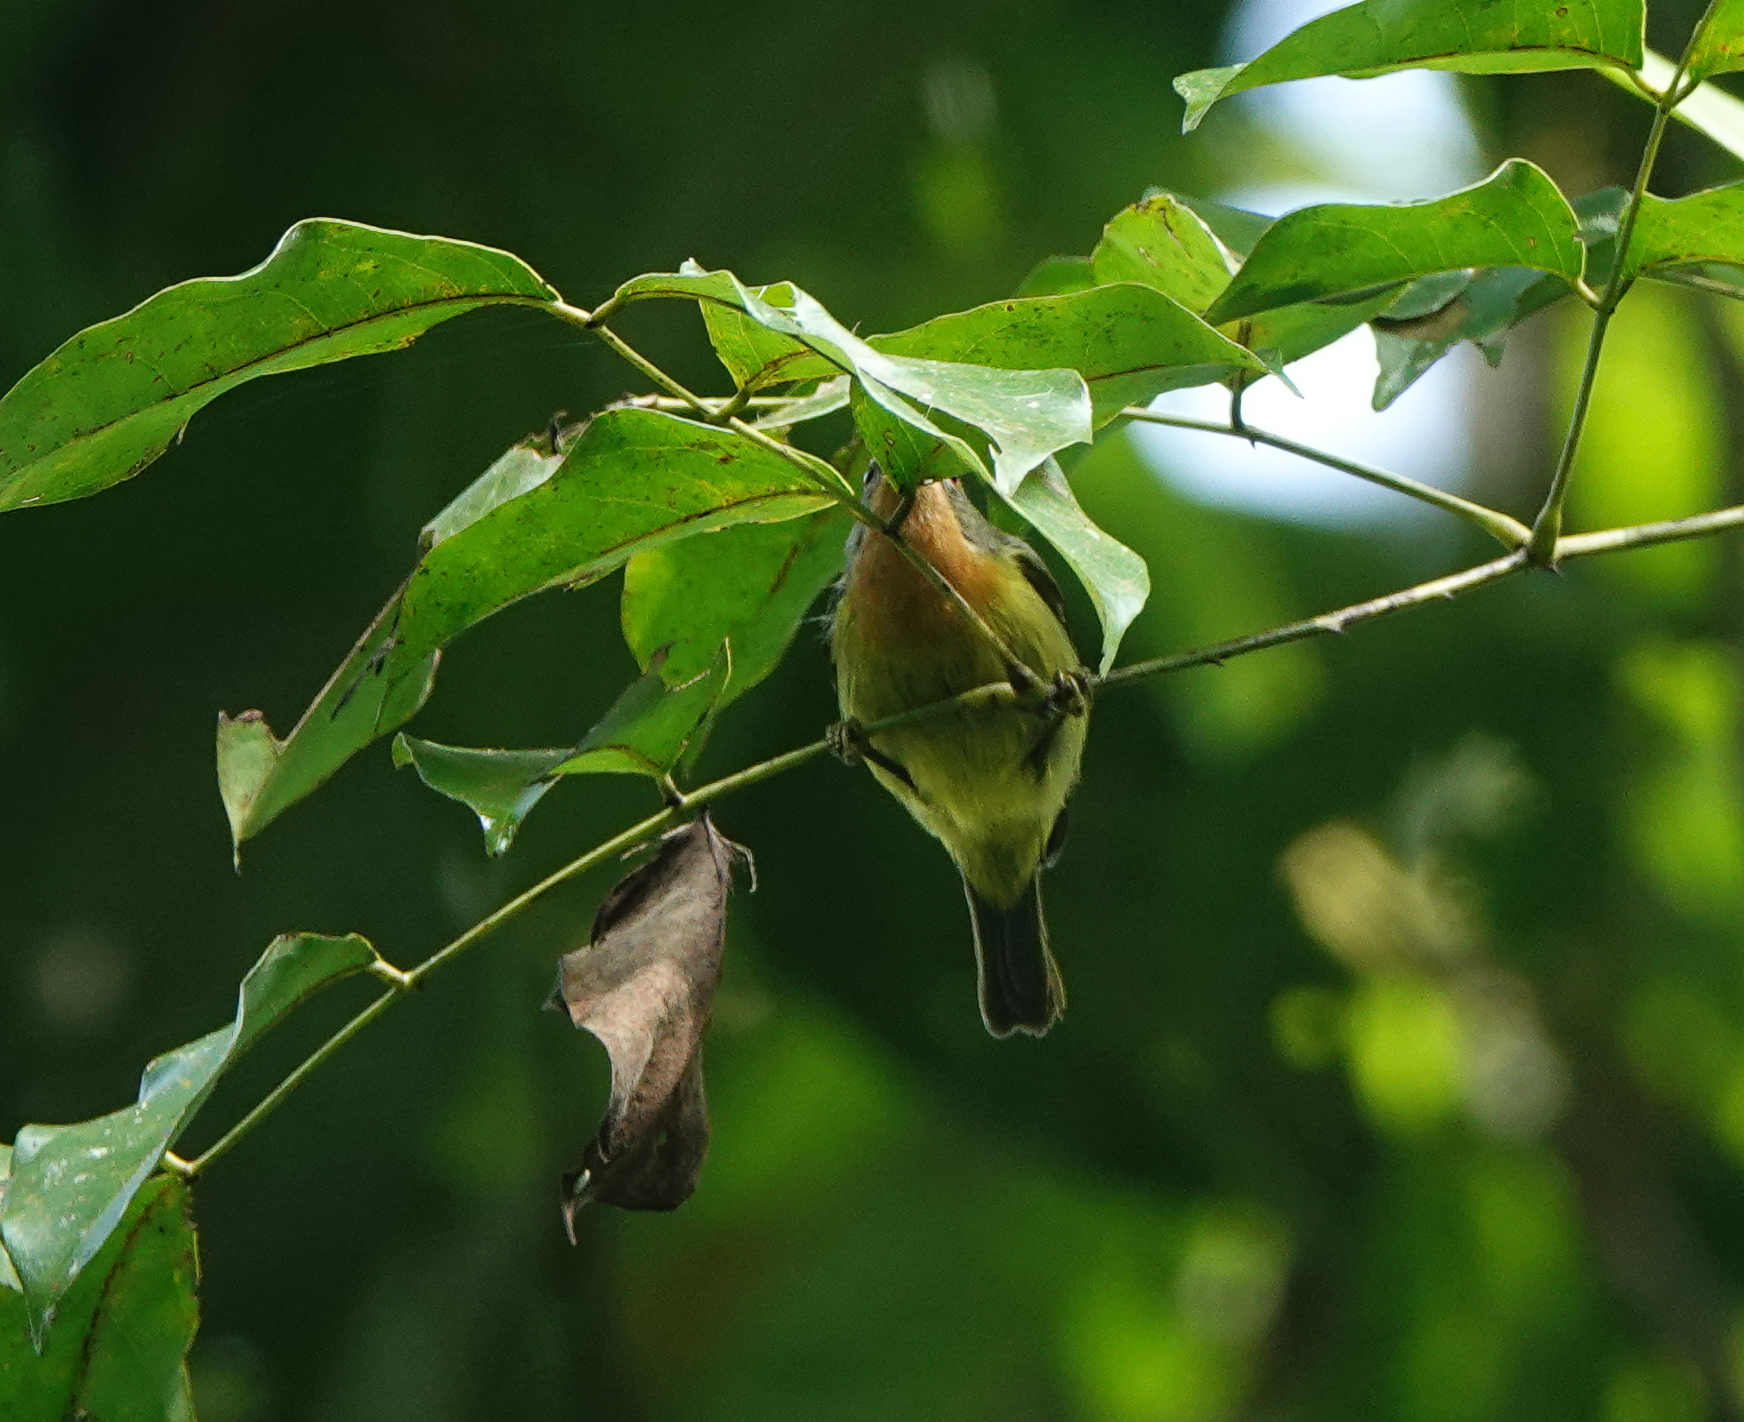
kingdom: Animalia
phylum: Chordata
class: Aves
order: Passeriformes
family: Nectariniidae
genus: Chalcoparia
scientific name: Chalcoparia singalensis
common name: Ruby-cheeked sunbird
